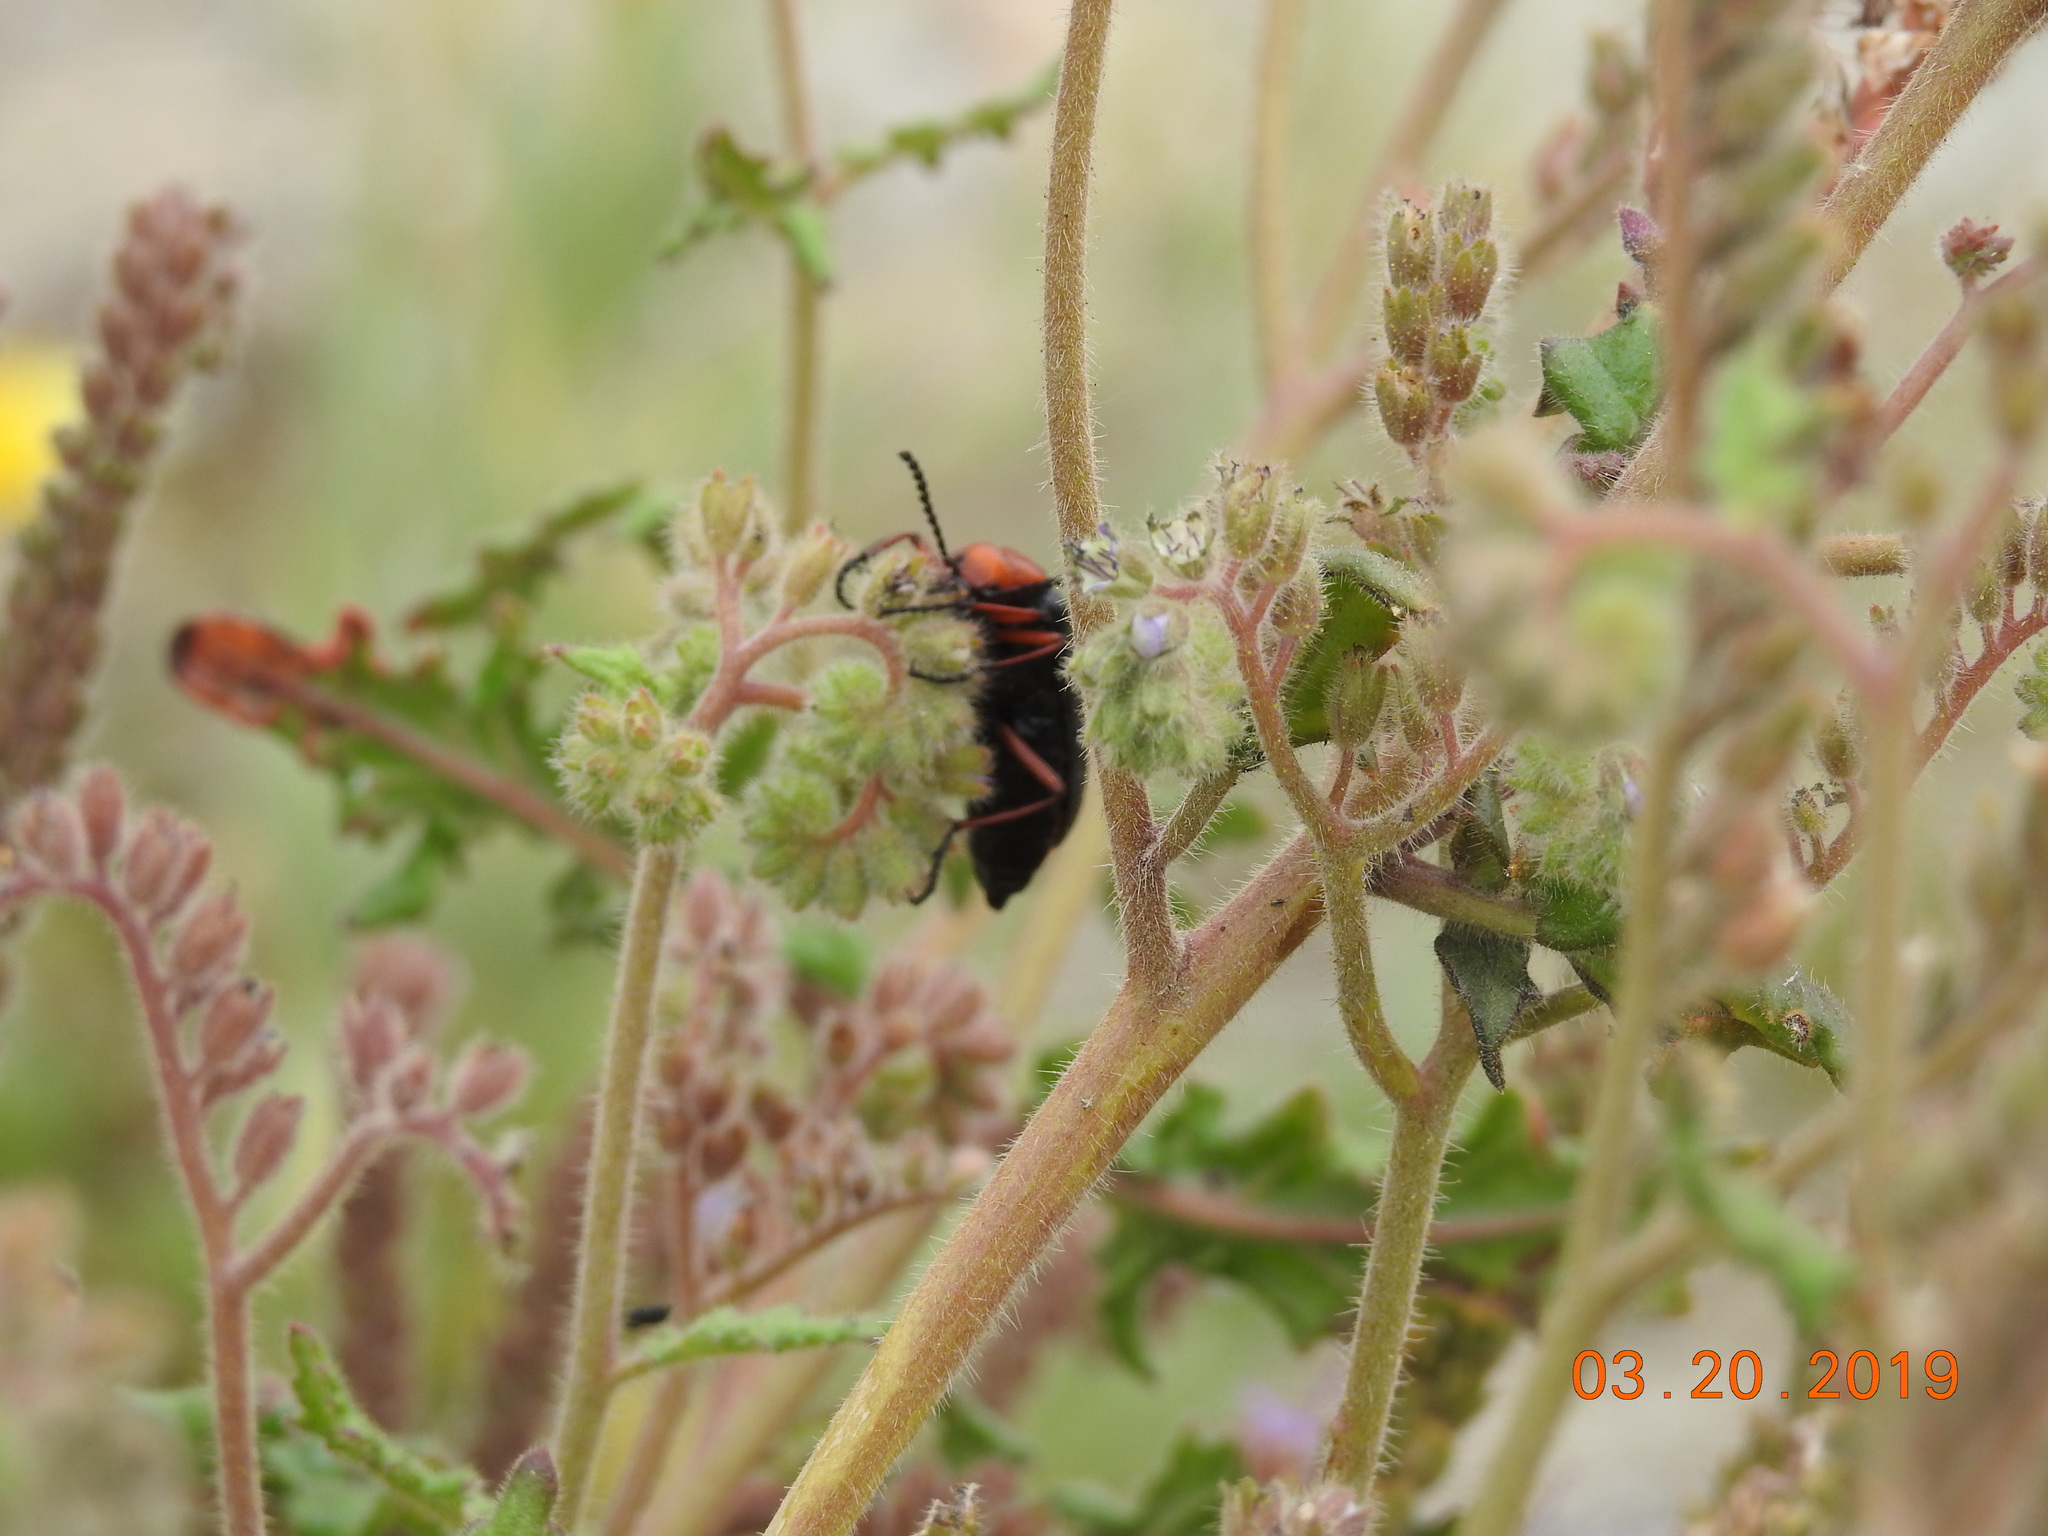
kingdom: Animalia
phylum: Arthropoda
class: Insecta
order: Coleoptera
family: Meloidae
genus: Lytta
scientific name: Lytta magister
